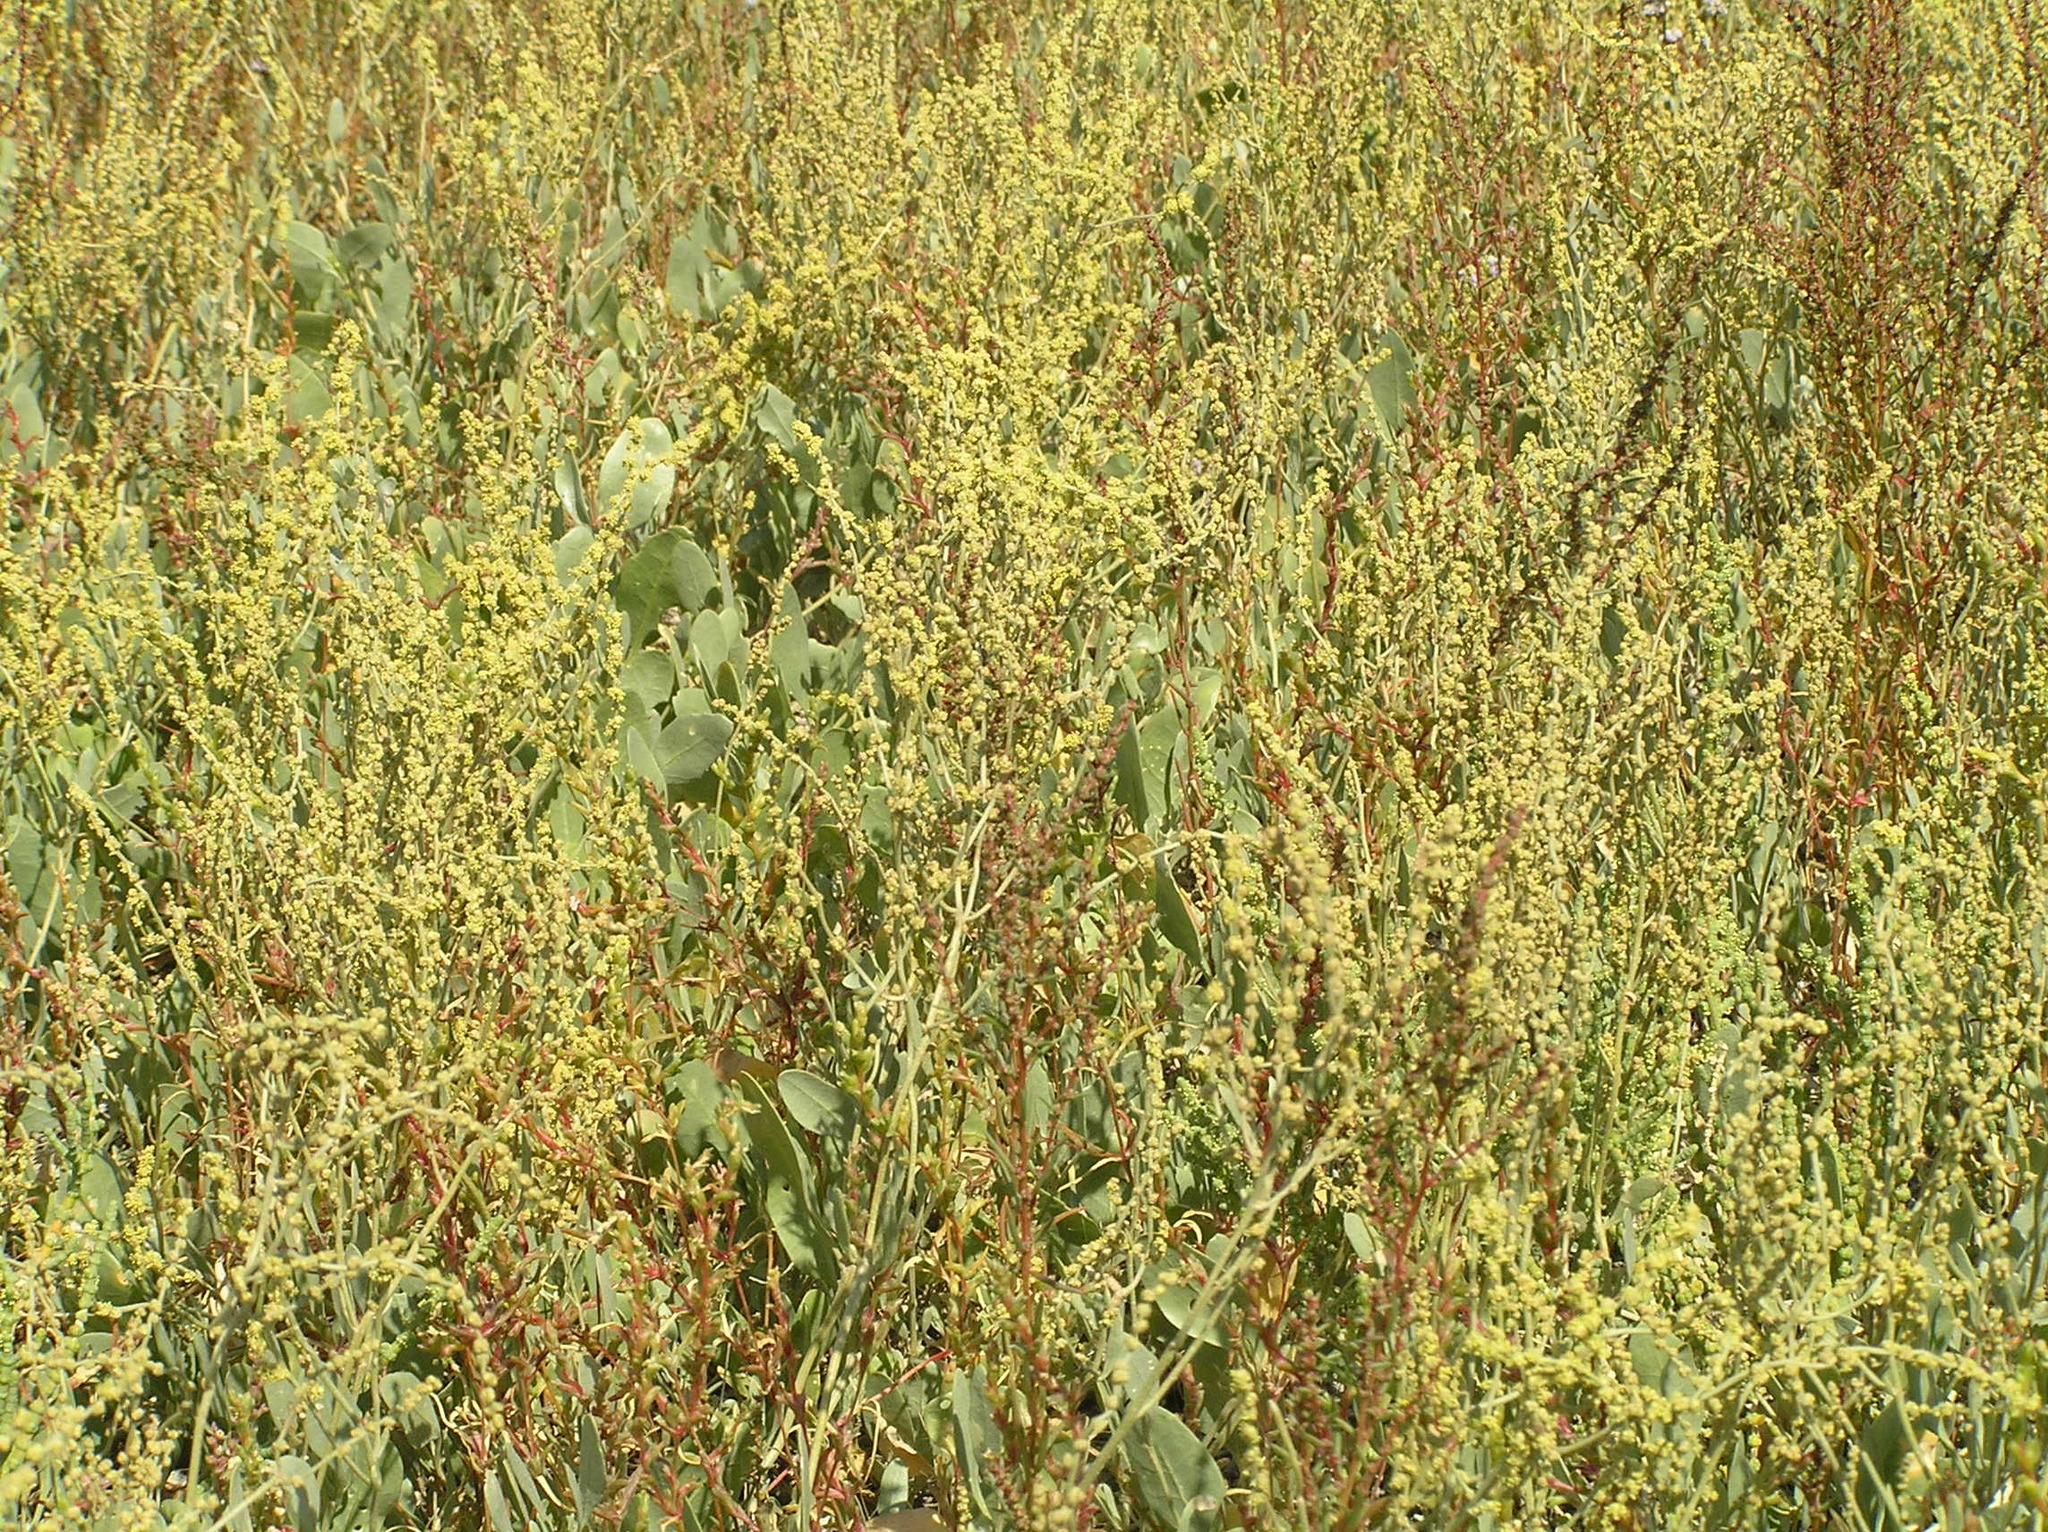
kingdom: Plantae
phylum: Tracheophyta
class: Magnoliopsida
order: Caryophyllales
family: Amaranthaceae
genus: Halimione
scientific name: Halimione verrucifera
